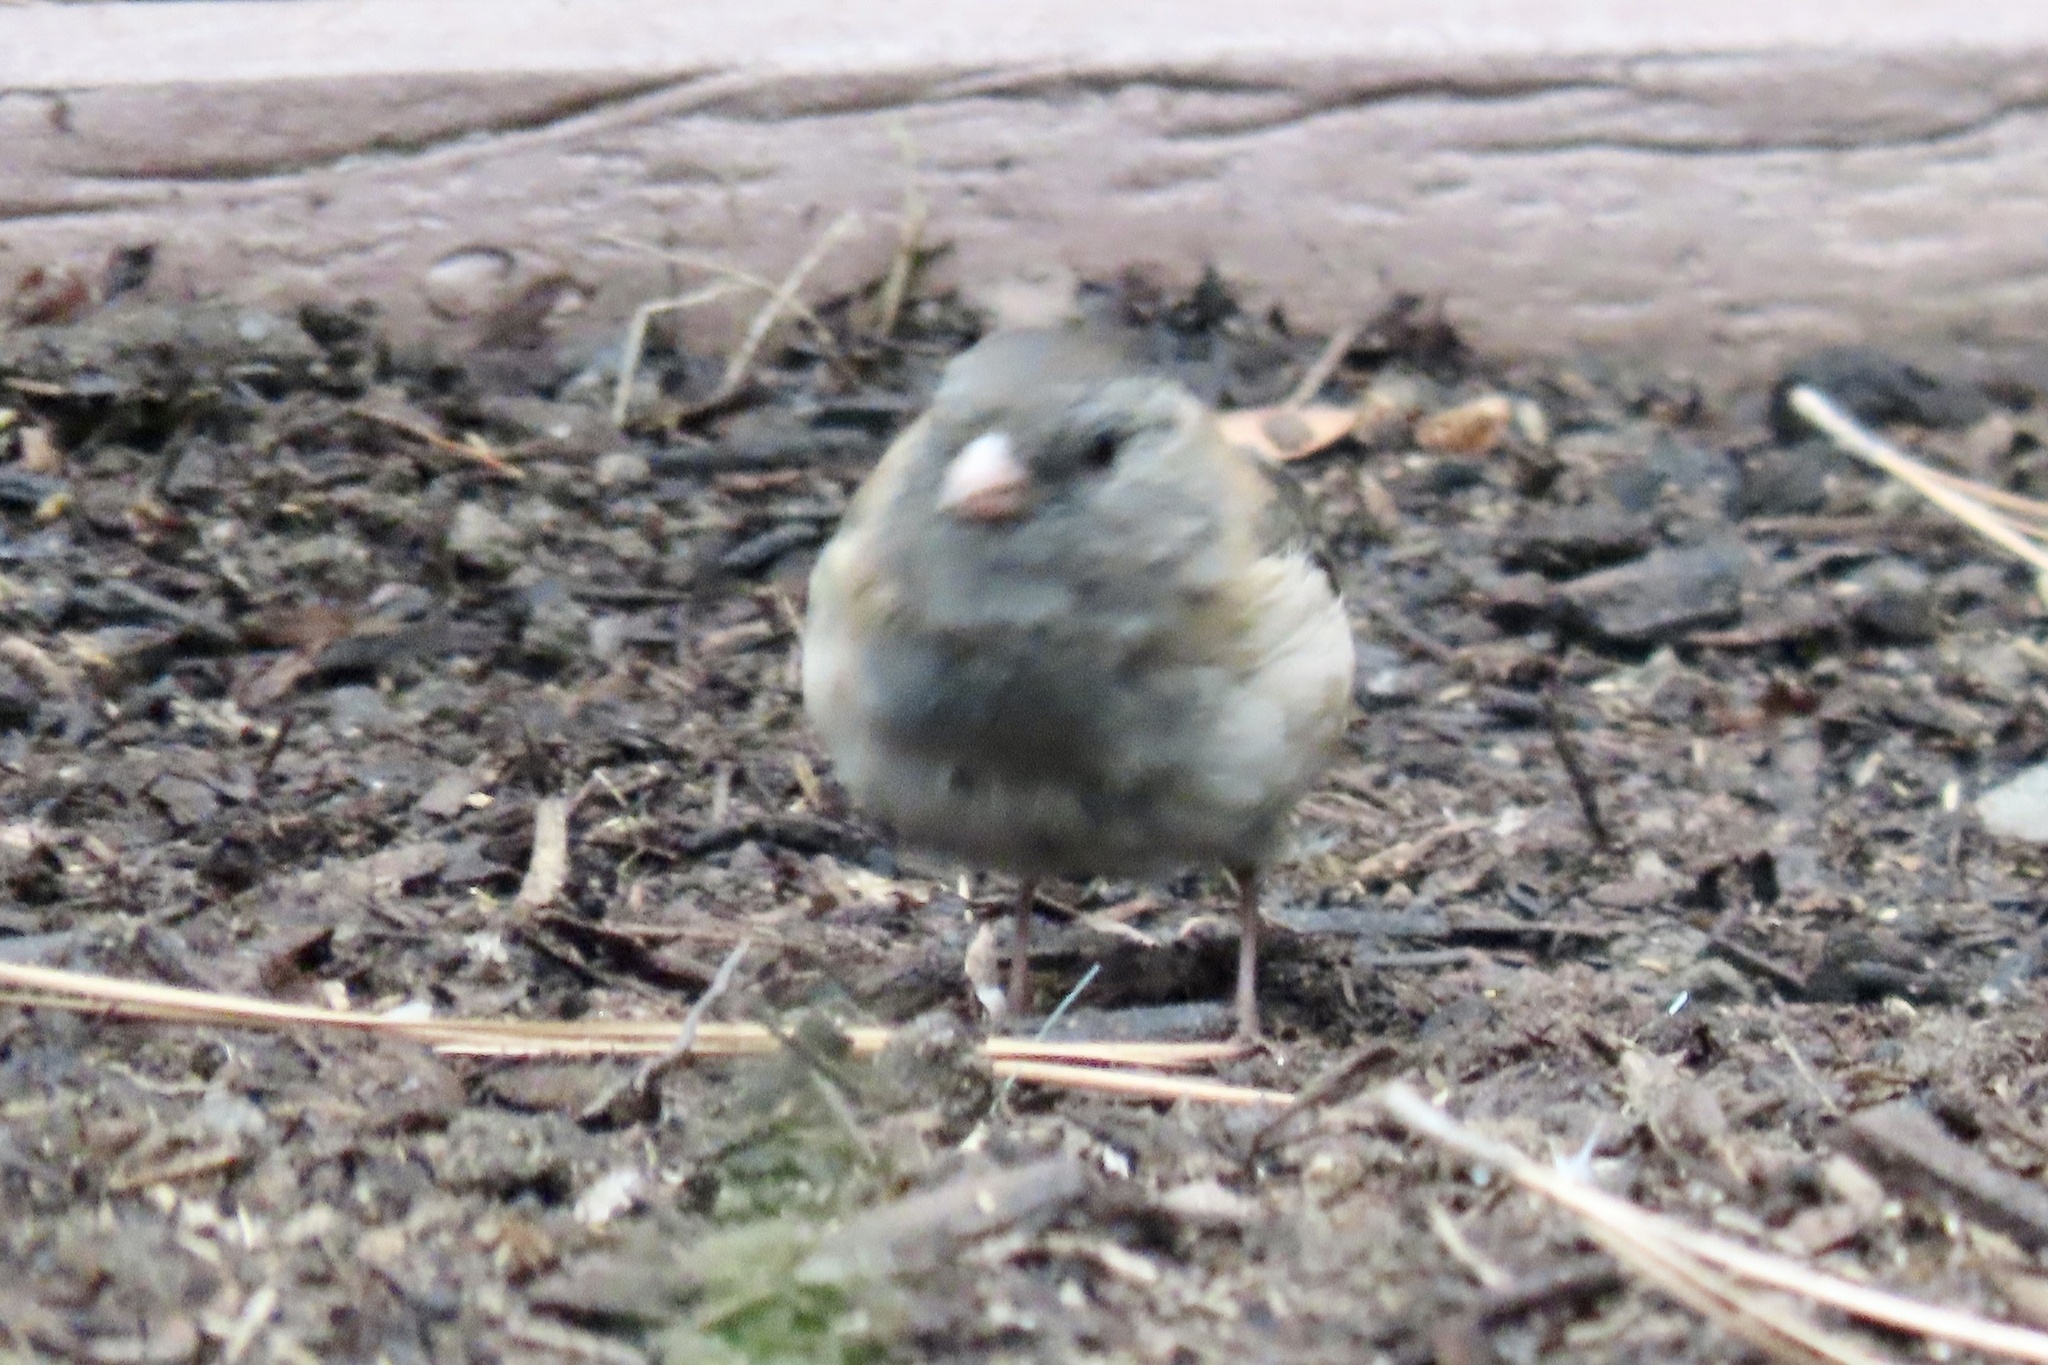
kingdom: Animalia
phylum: Chordata
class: Aves
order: Passeriformes
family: Passerellidae
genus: Junco
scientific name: Junco hyemalis
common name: Dark-eyed junco
